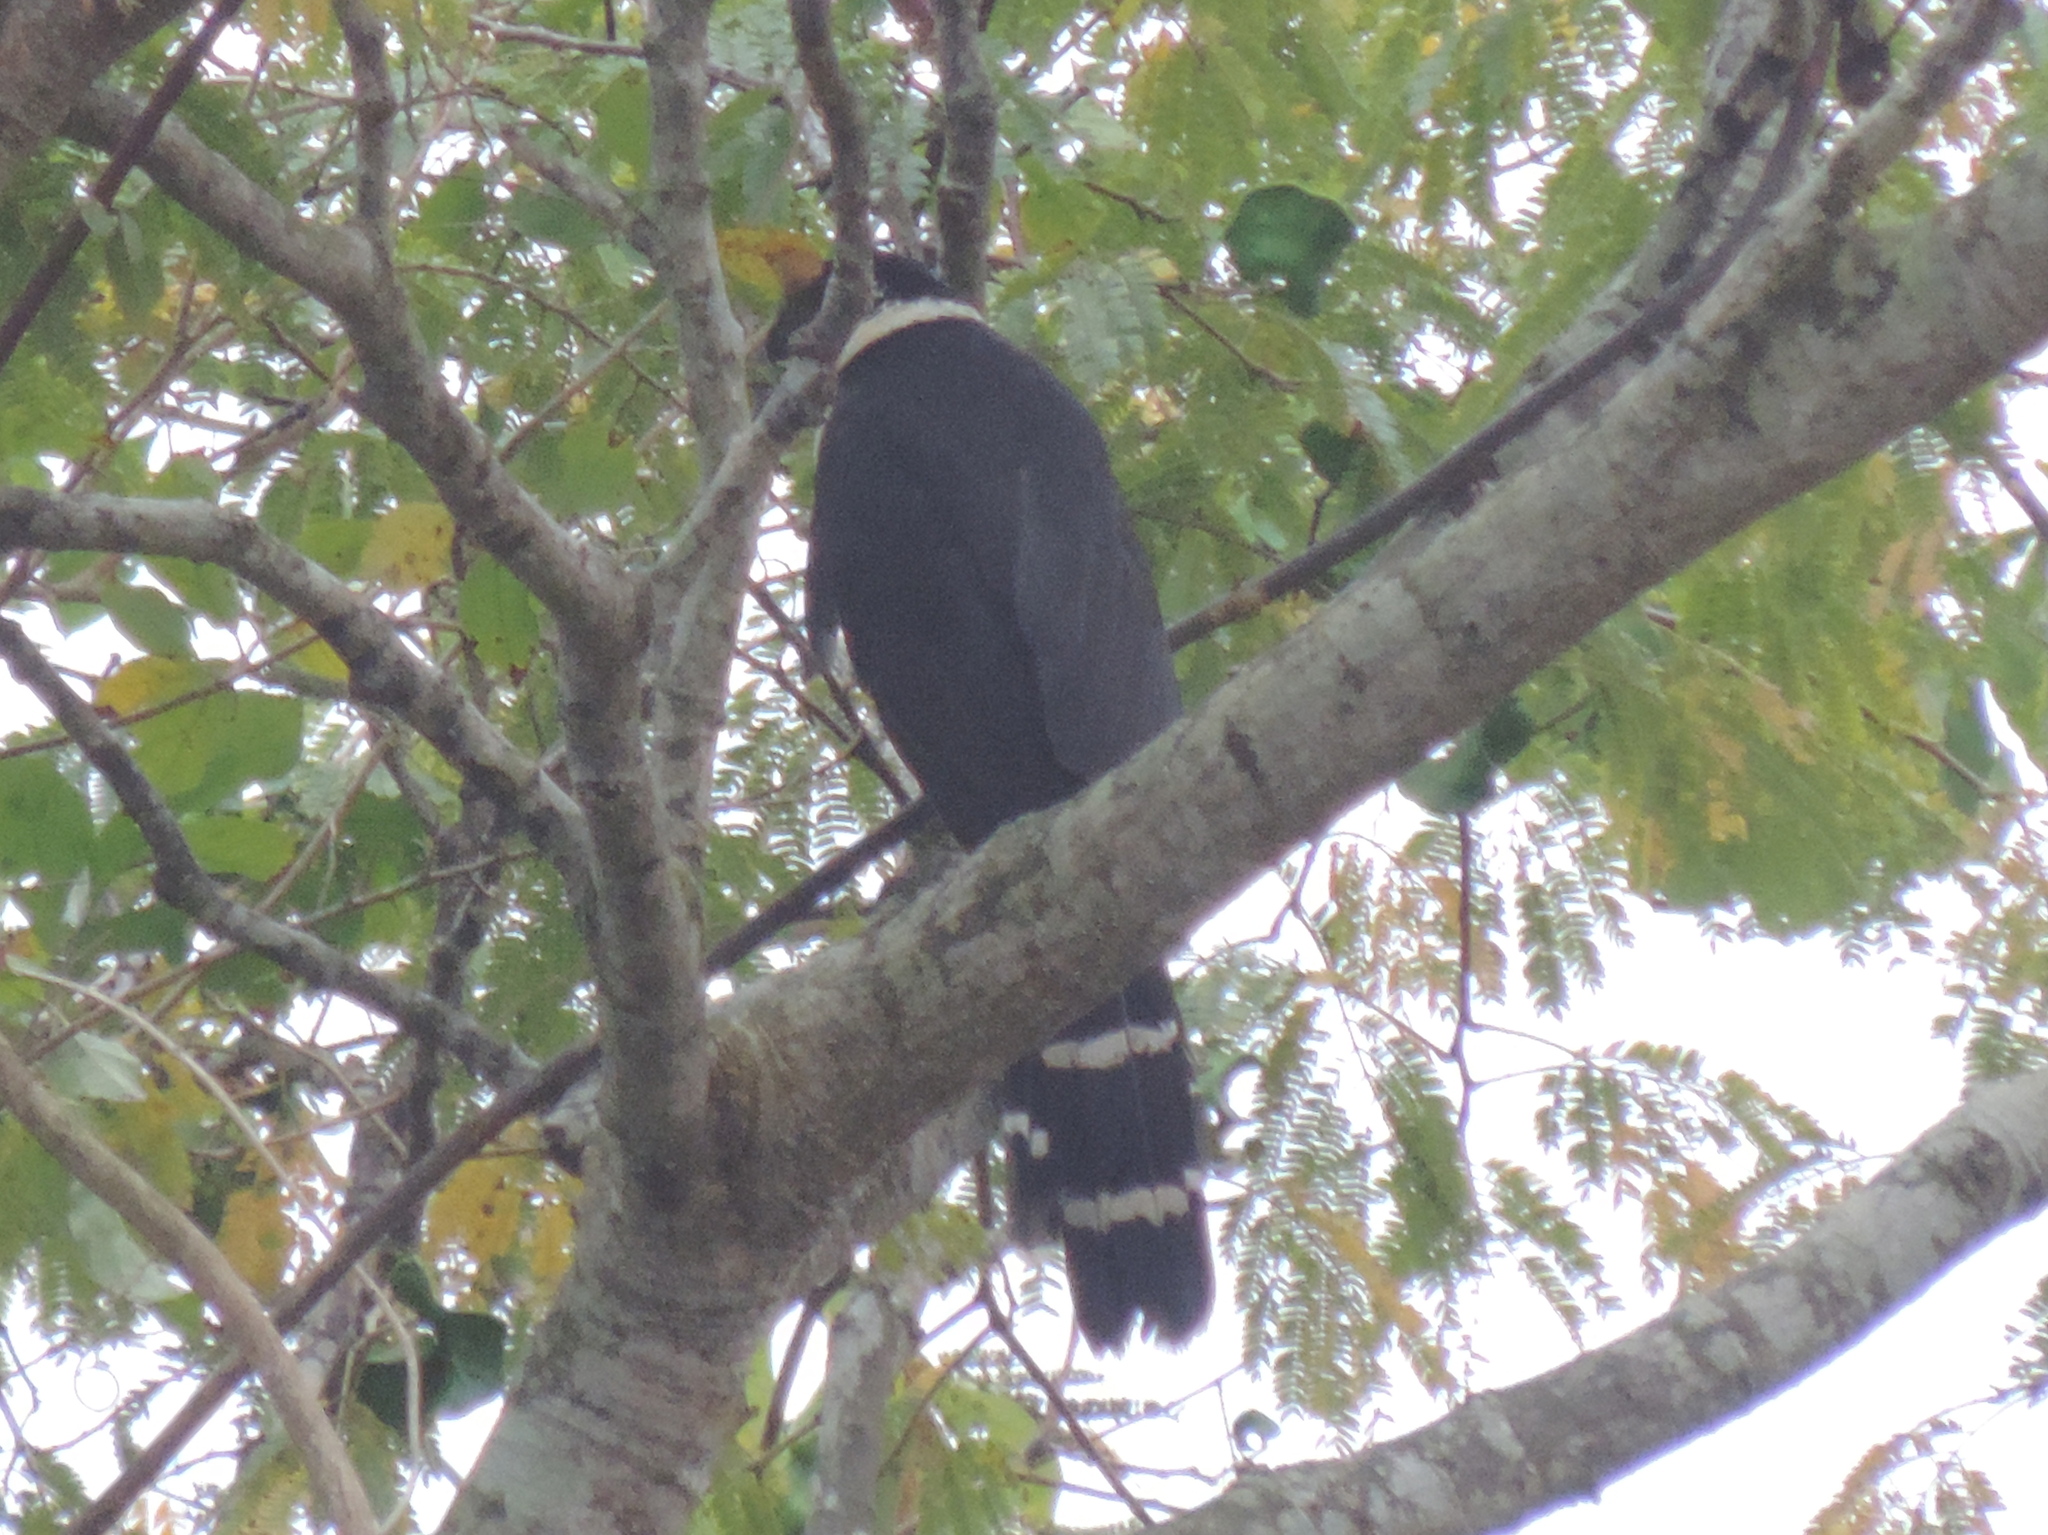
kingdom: Animalia
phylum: Chordata
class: Aves
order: Falconiformes
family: Falconidae
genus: Micrastur
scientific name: Micrastur semitorquatus
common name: Collared forest-falcon
